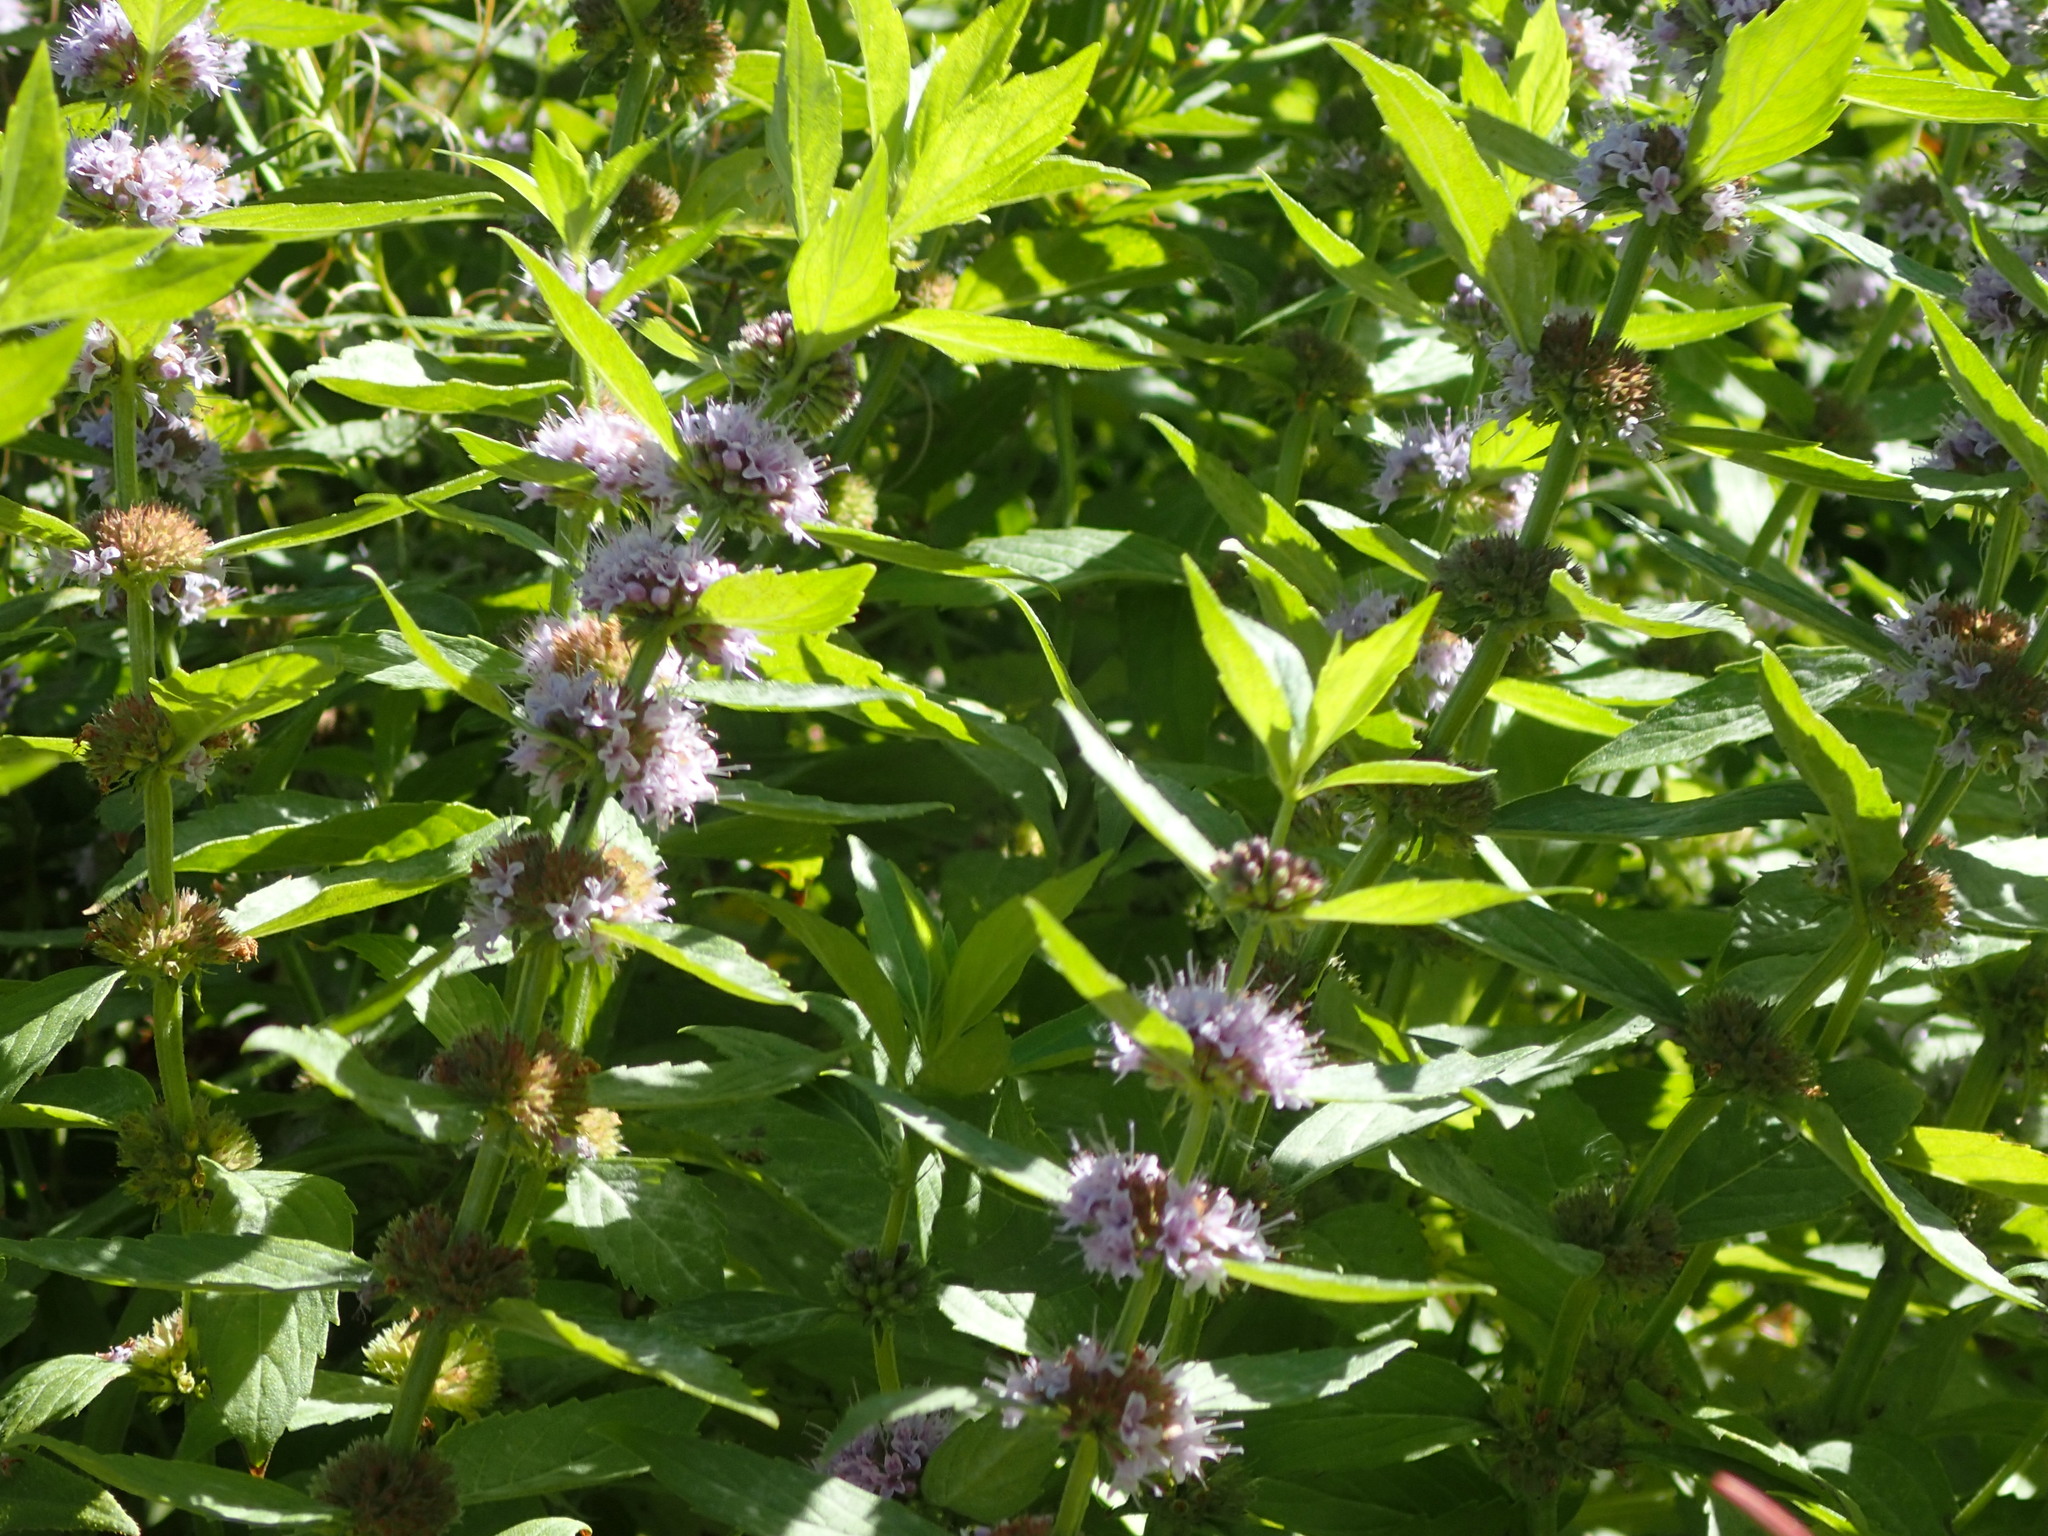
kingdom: Plantae
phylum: Tracheophyta
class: Magnoliopsida
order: Lamiales
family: Lamiaceae
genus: Mentha
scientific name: Mentha canadensis
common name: American corn mint
